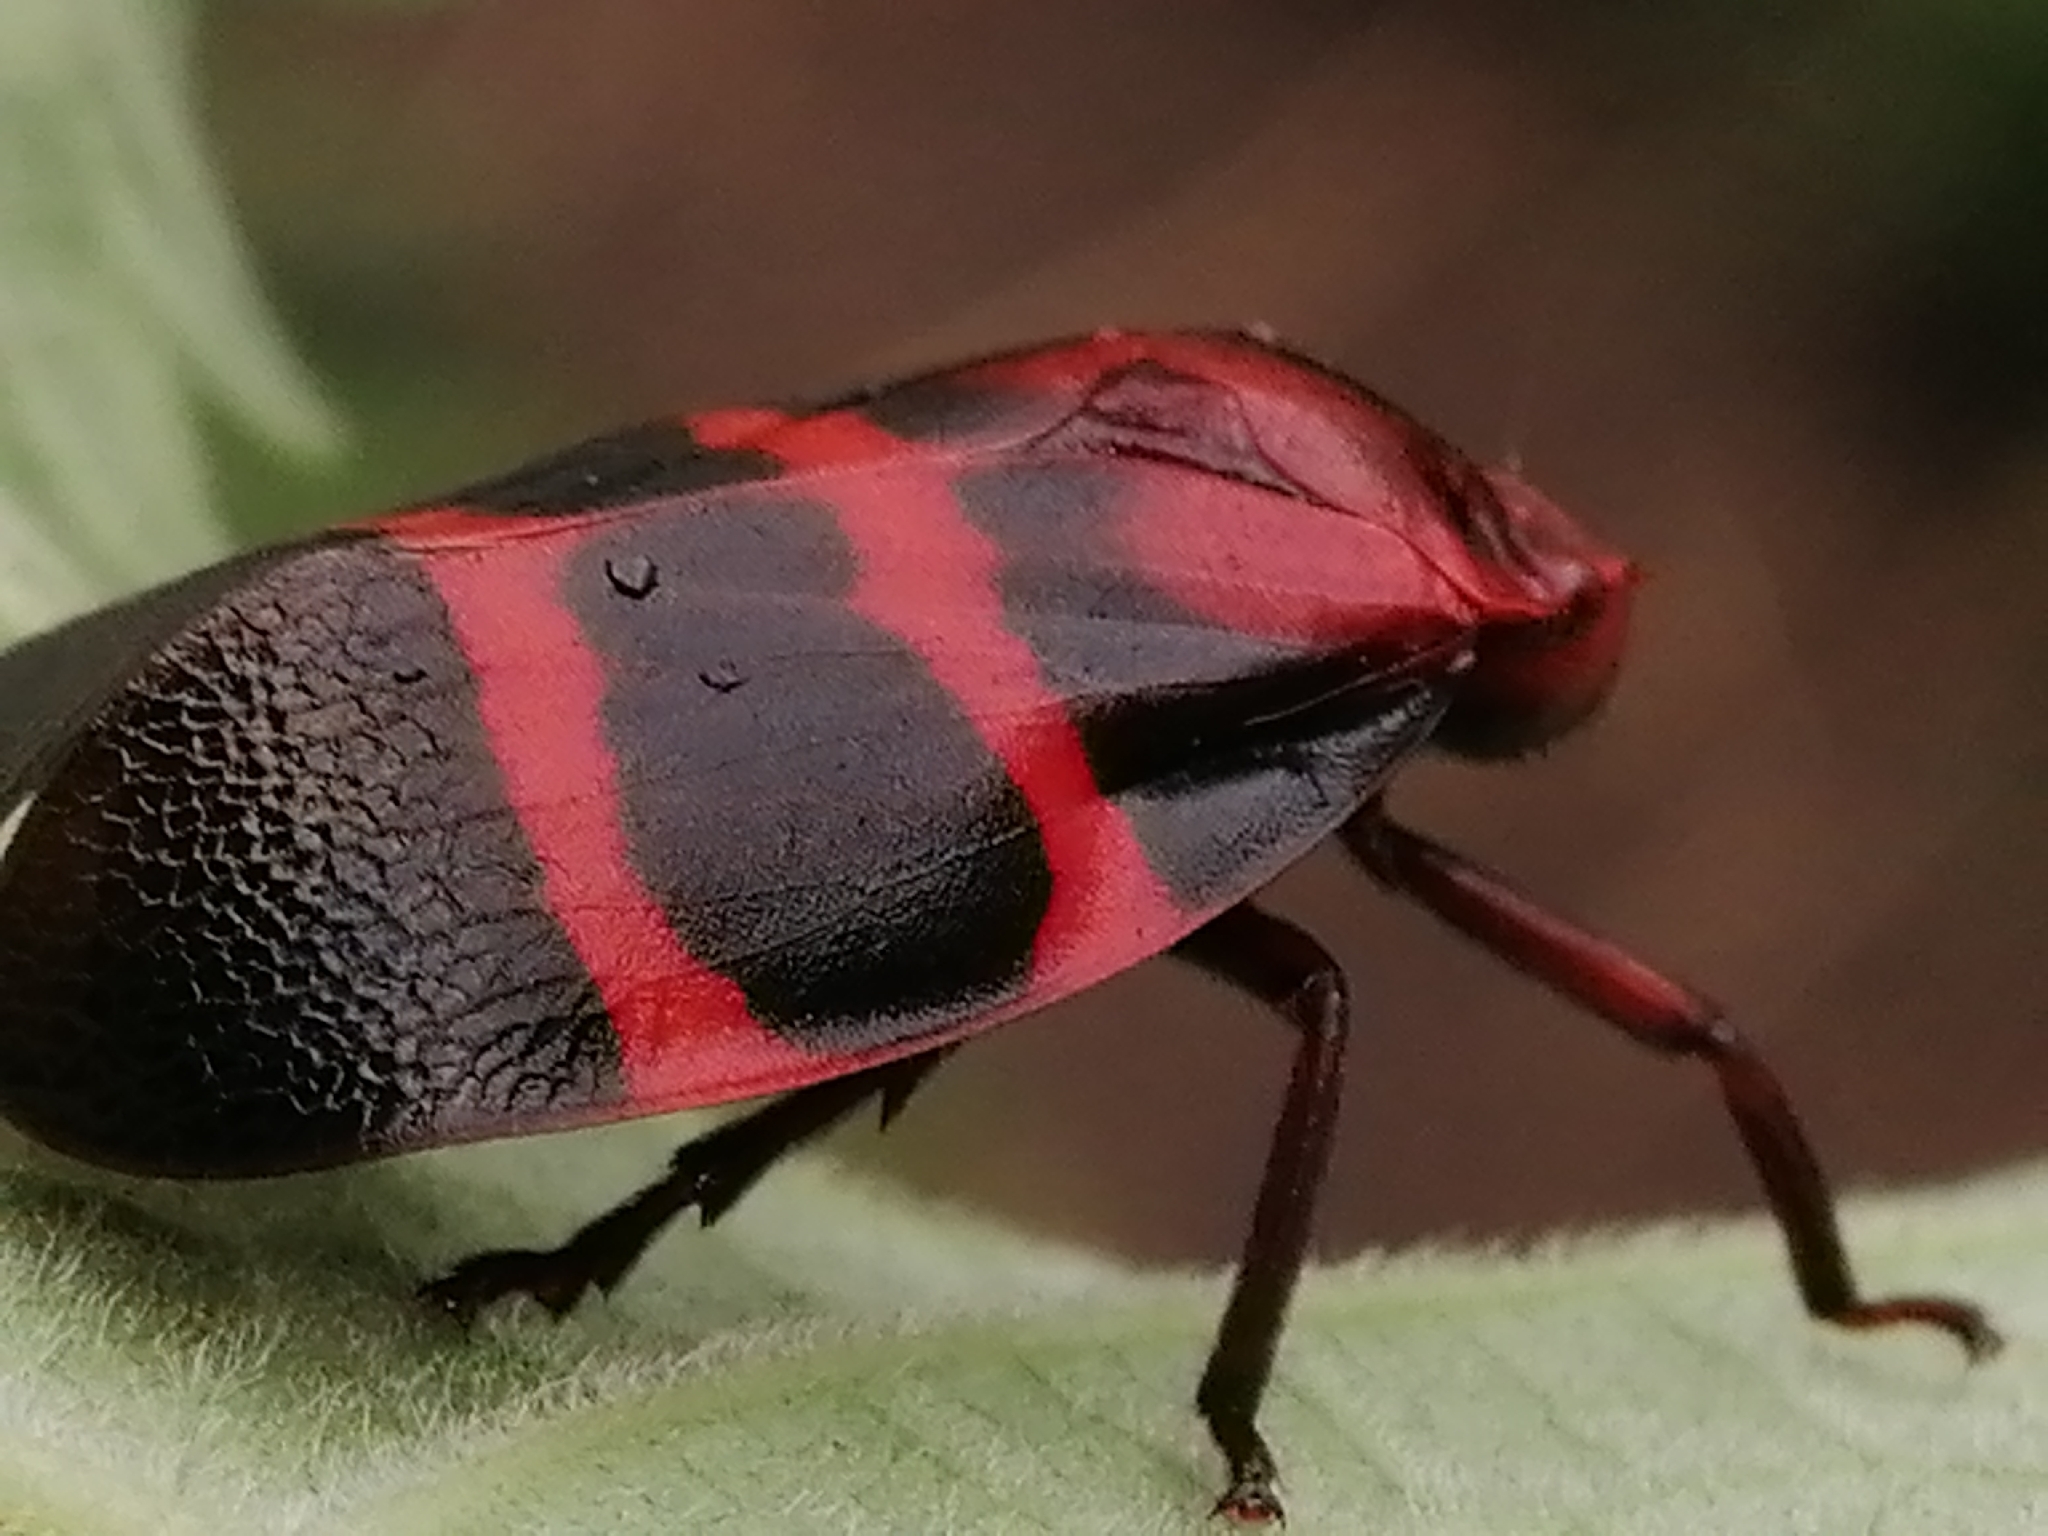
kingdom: Animalia
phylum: Arthropoda
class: Insecta
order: Hemiptera
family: Cercopidae
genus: Huaina
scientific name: Huaina inca
